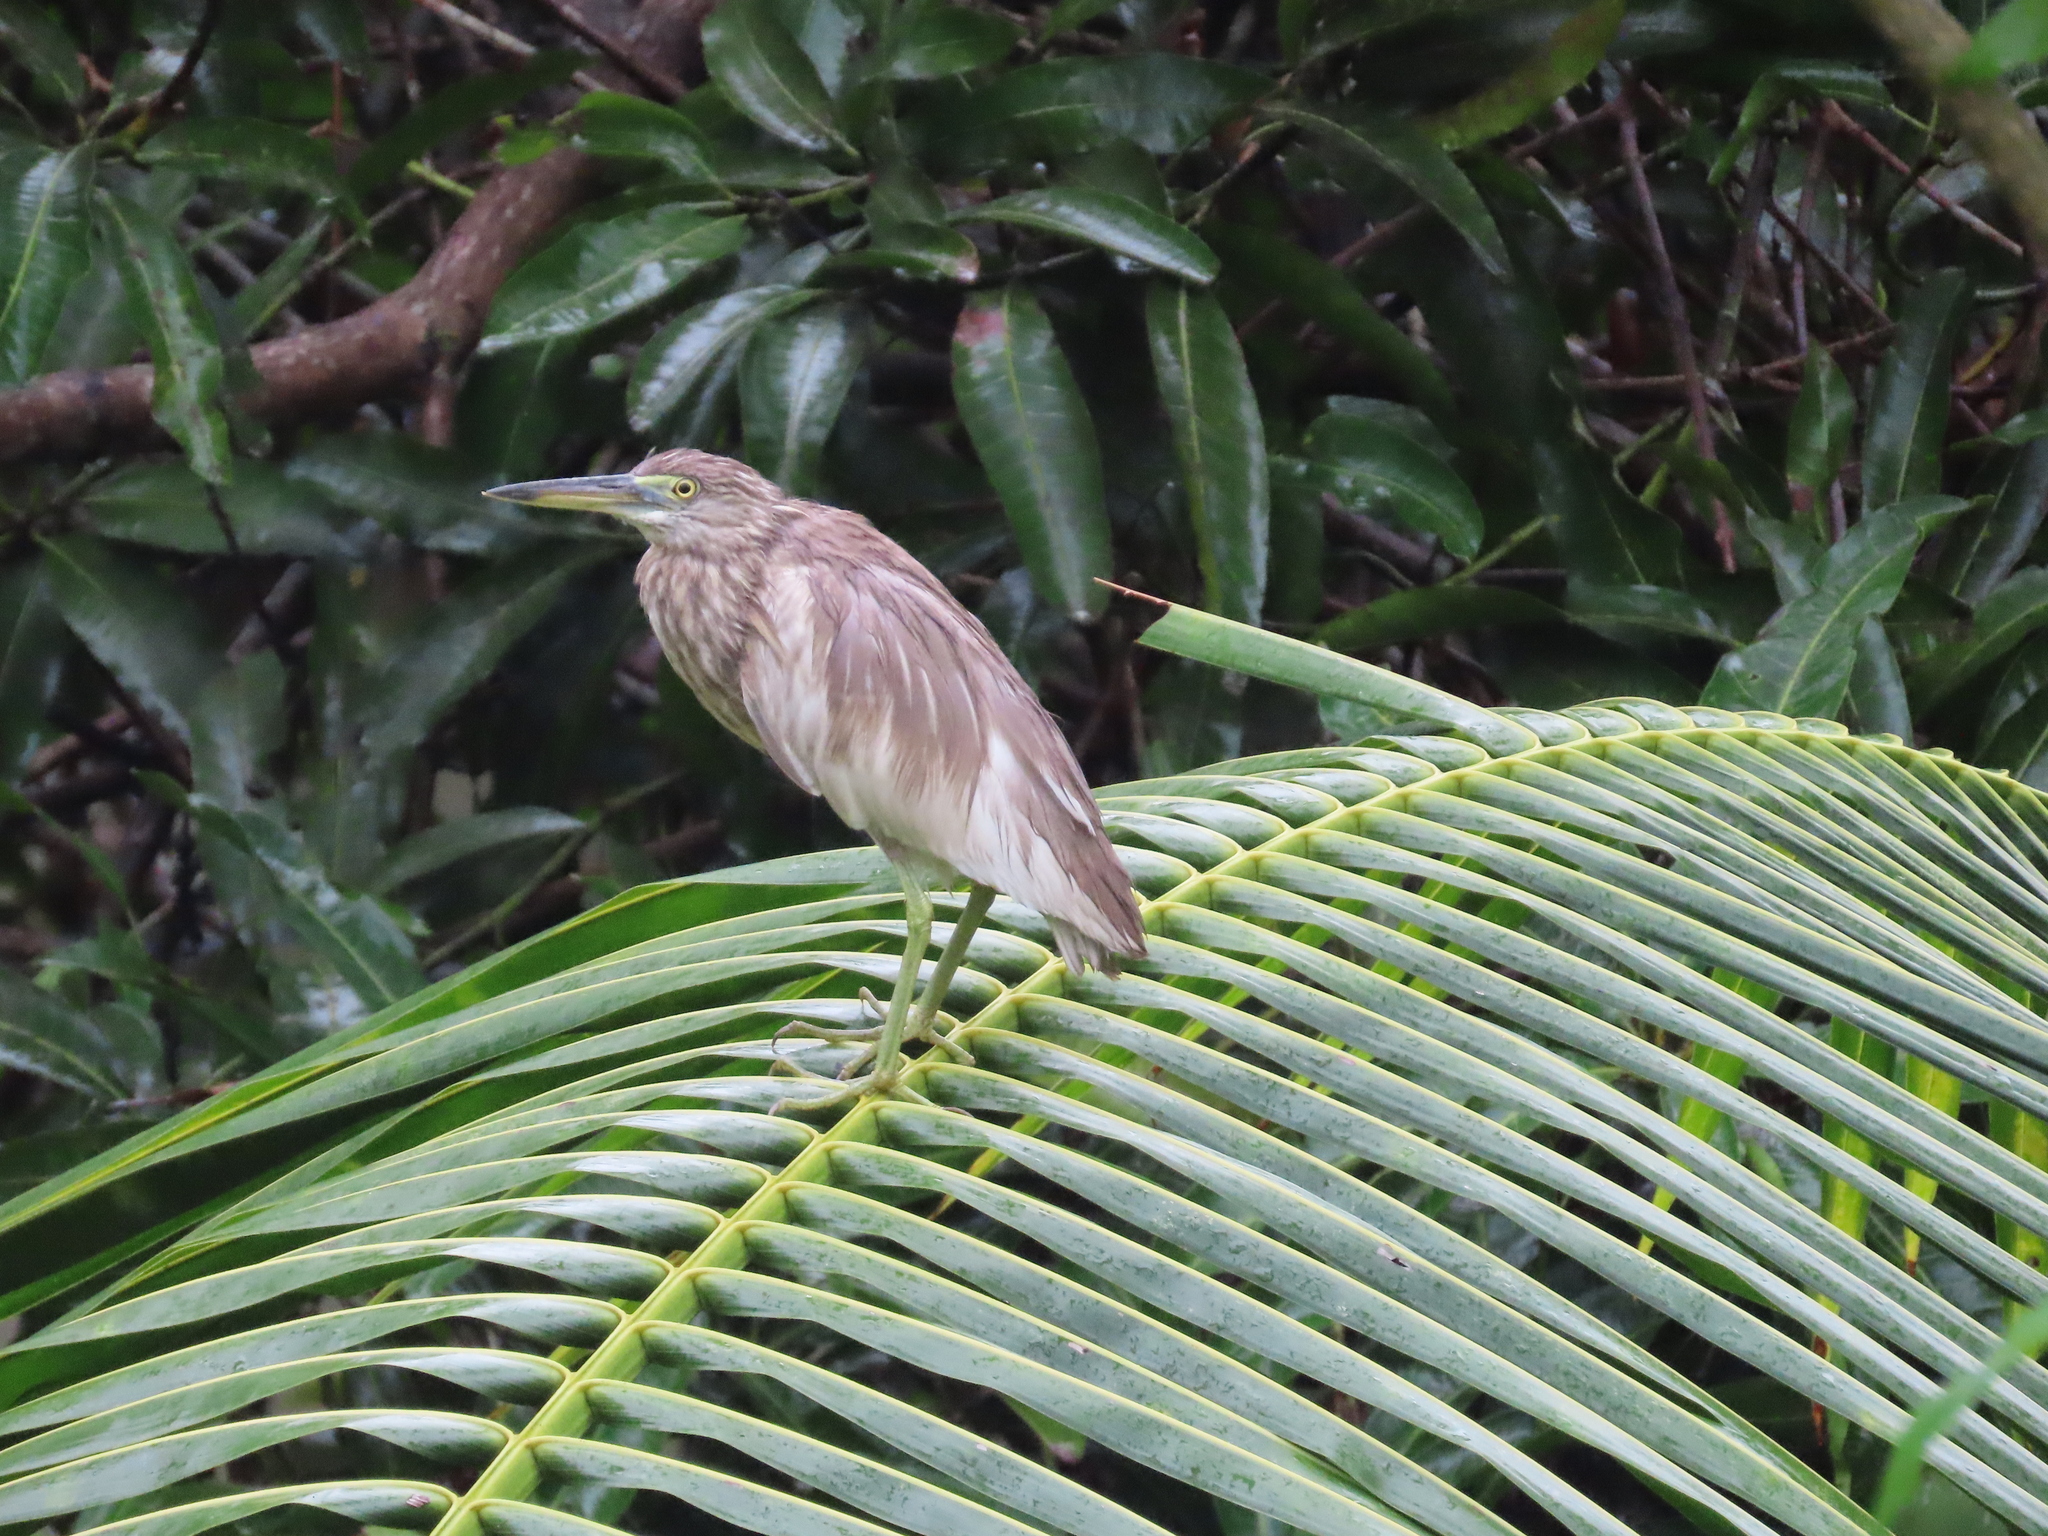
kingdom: Animalia
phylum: Chordata
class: Aves
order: Pelecaniformes
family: Ardeidae
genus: Ardeola
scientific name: Ardeola grayii
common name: Indian pond heron
